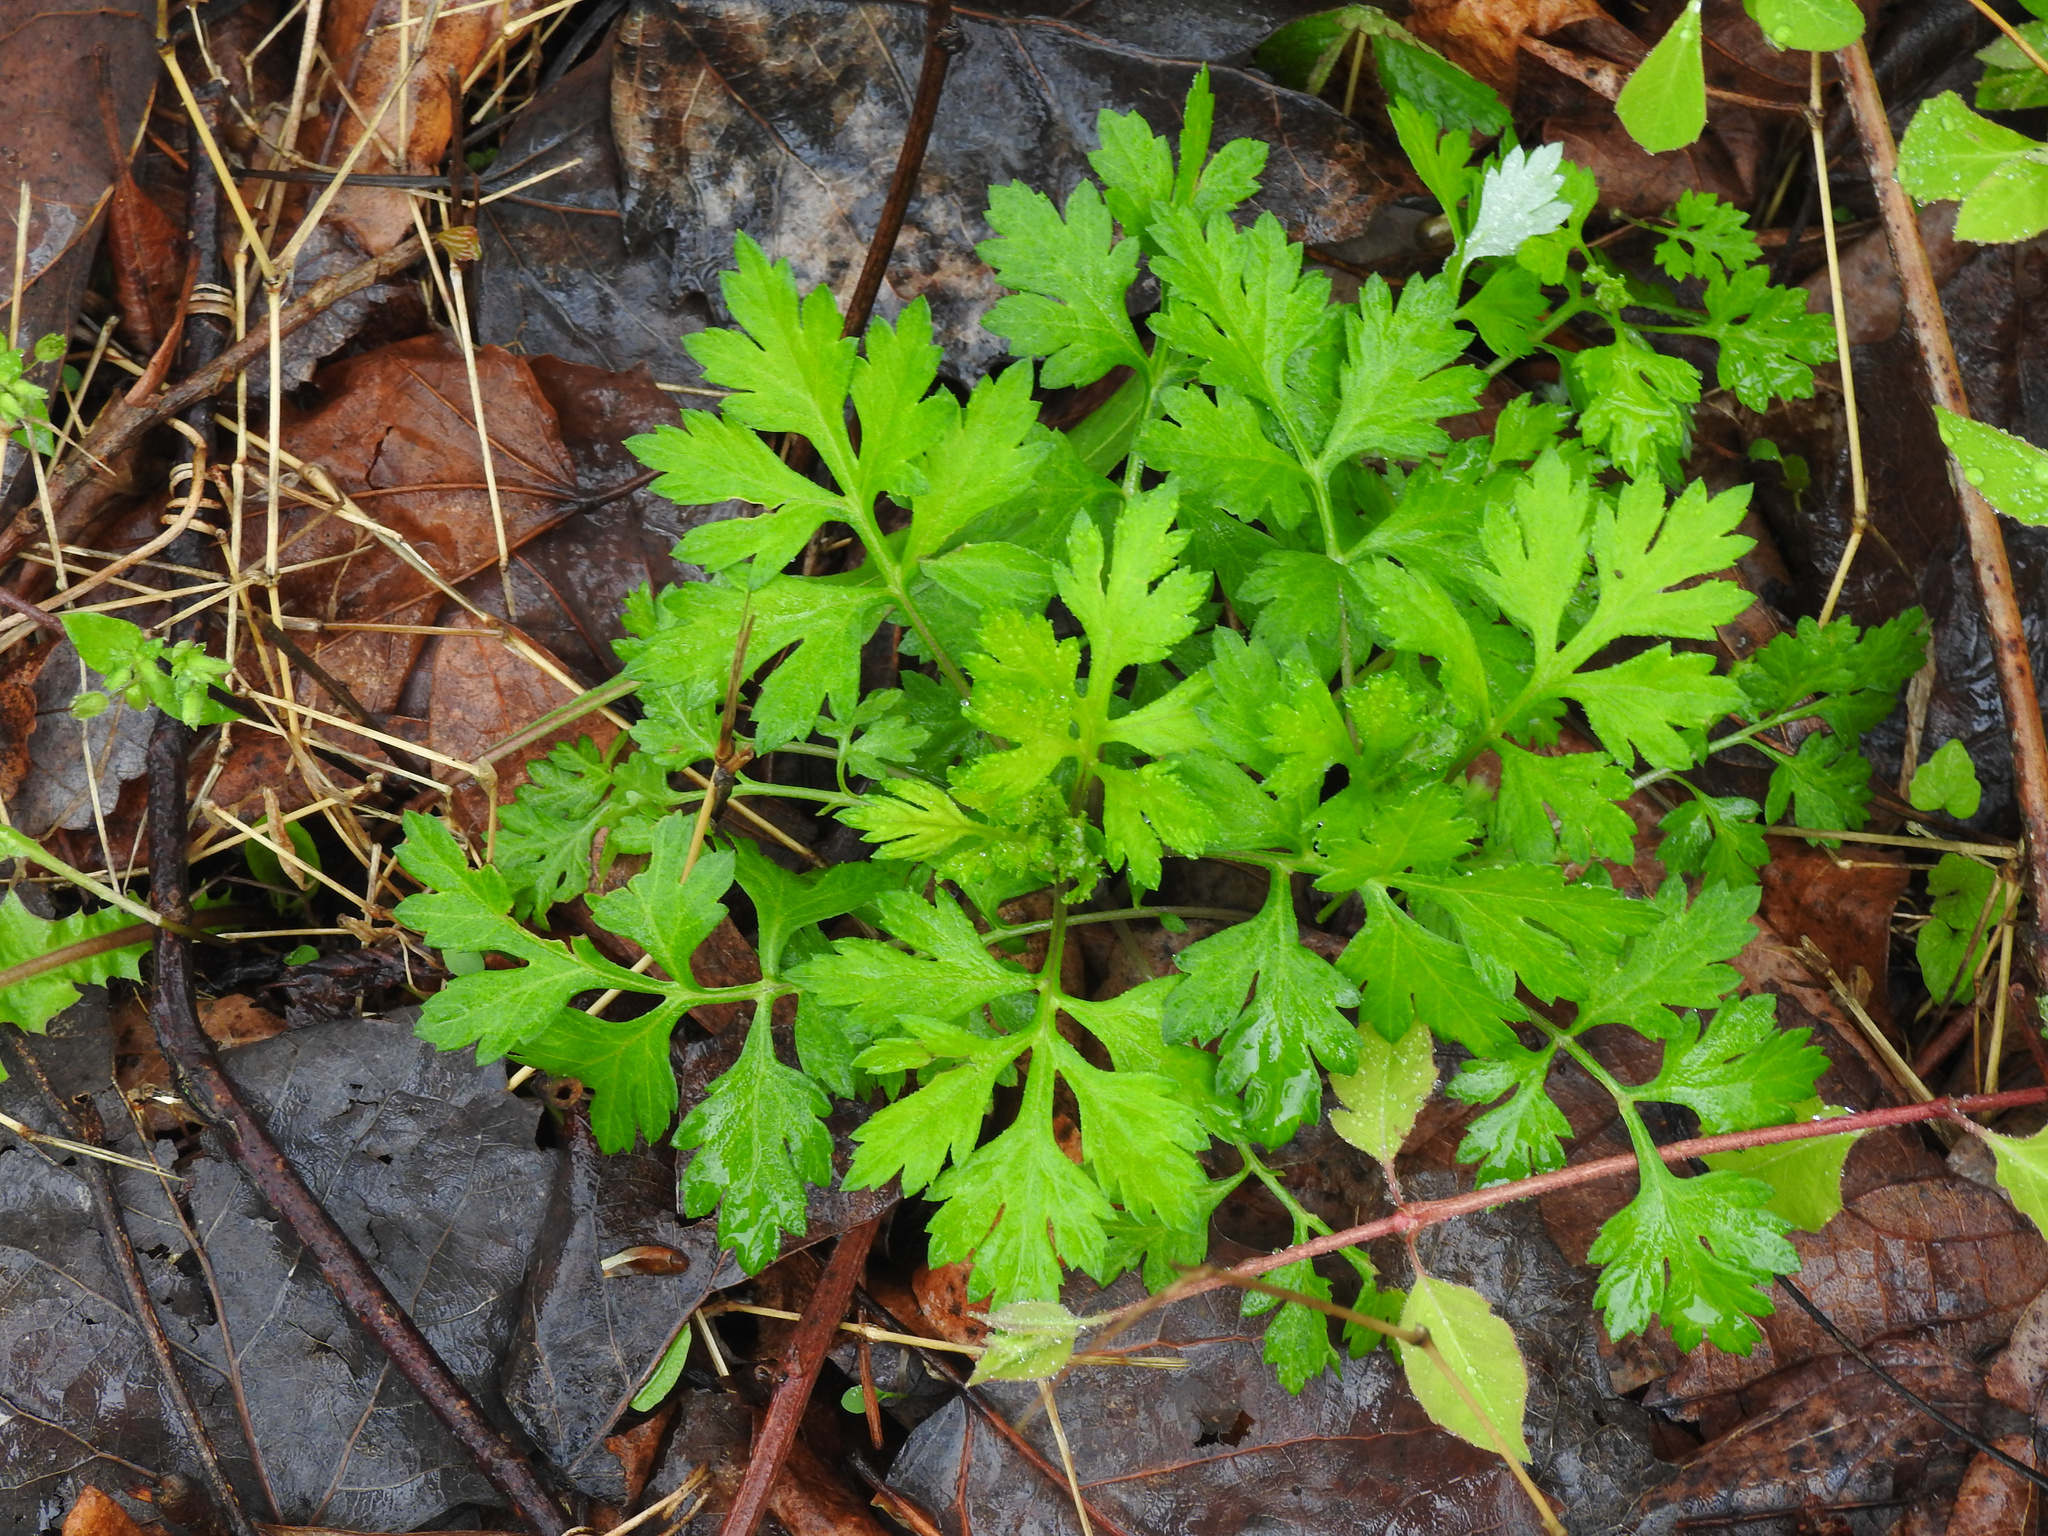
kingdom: Plantae
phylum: Tracheophyta
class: Magnoliopsida
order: Asterales
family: Asteraceae
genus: Artemisia
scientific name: Artemisia vulgaris
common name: Mugwort
